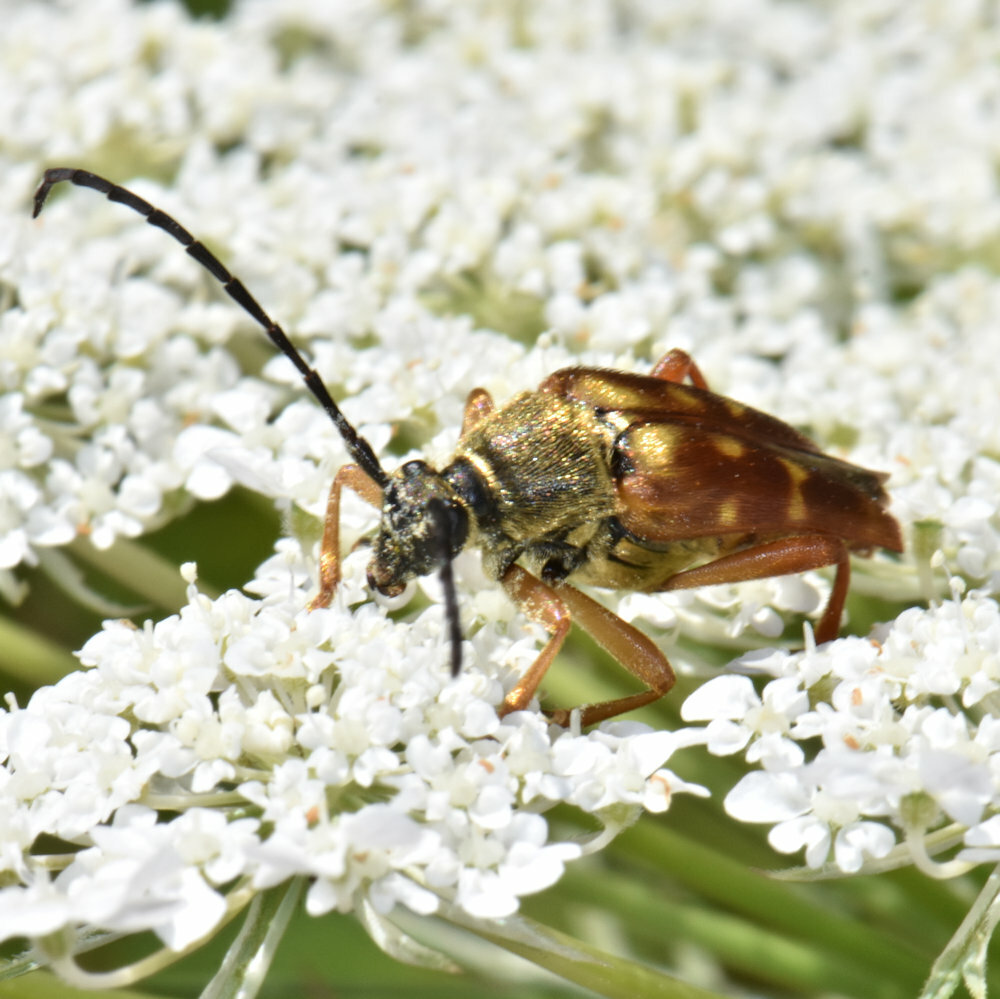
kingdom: Animalia
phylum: Arthropoda
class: Insecta
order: Coleoptera
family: Cerambycidae
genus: Typocerus
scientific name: Typocerus velutinus
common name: Banded longhorn beetle
